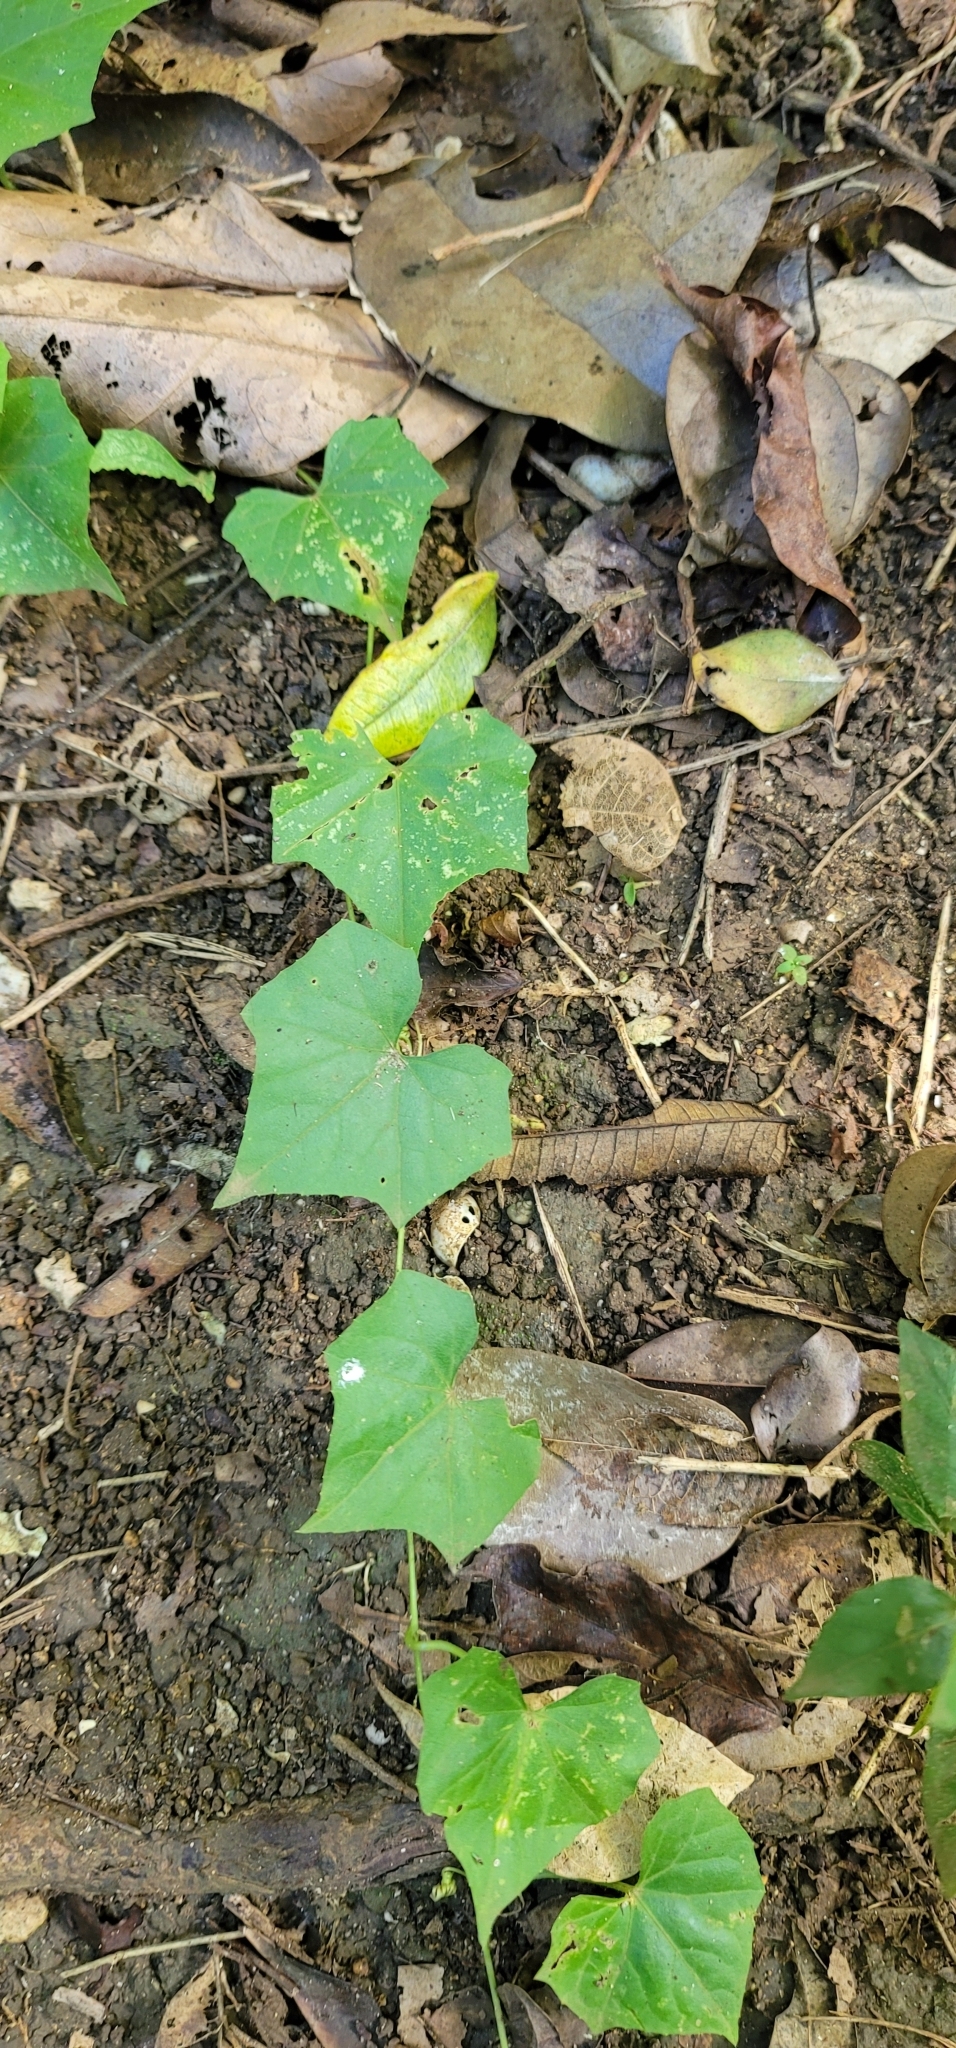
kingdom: Plantae
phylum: Tracheophyta
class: Magnoliopsida
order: Cucurbitales
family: Cucurbitaceae
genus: Melothria
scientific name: Melothria pendula
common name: Creeping-cucumber
